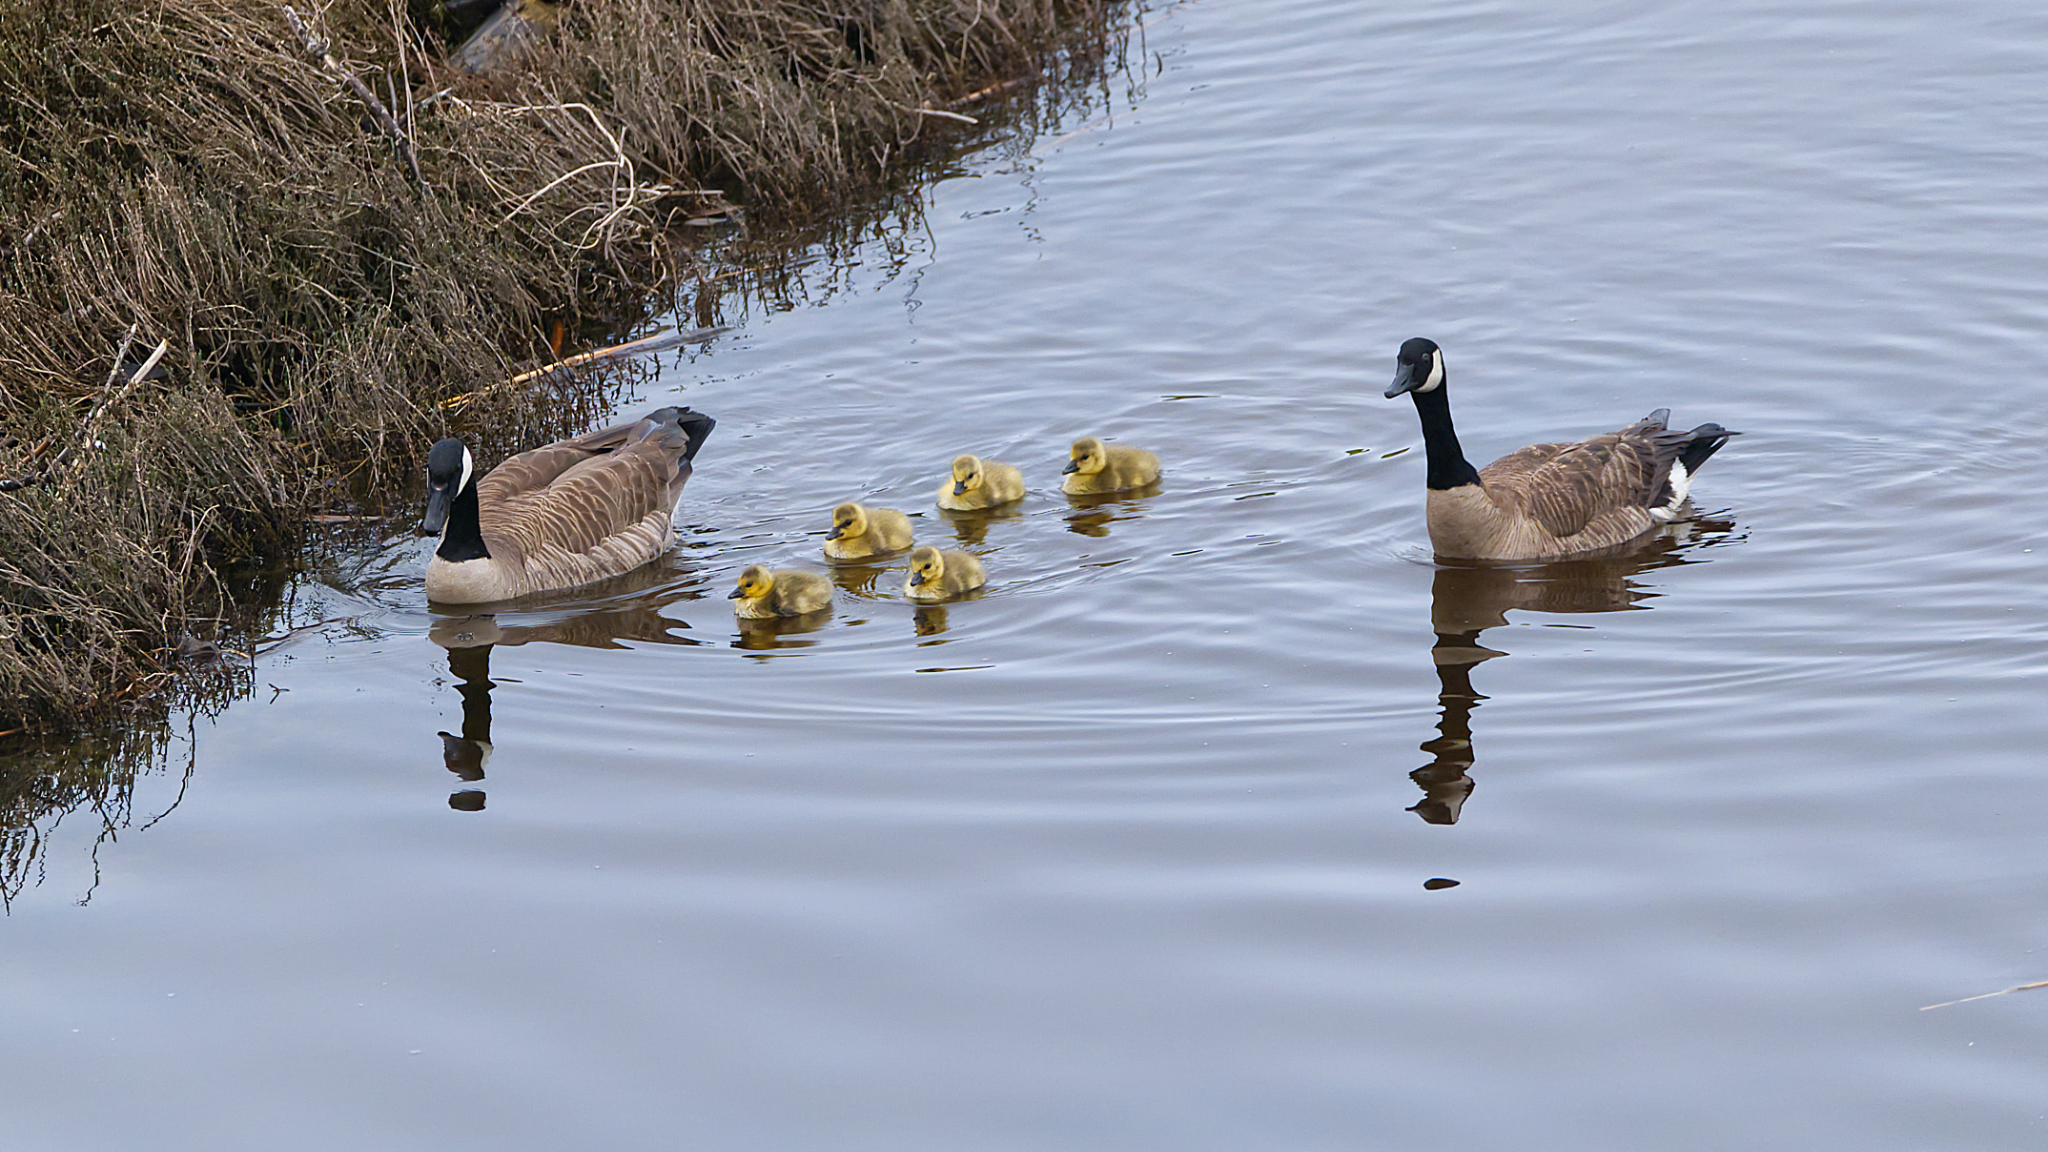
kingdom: Animalia
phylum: Chordata
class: Aves
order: Anseriformes
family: Anatidae
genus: Branta
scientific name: Branta canadensis
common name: Canada goose
